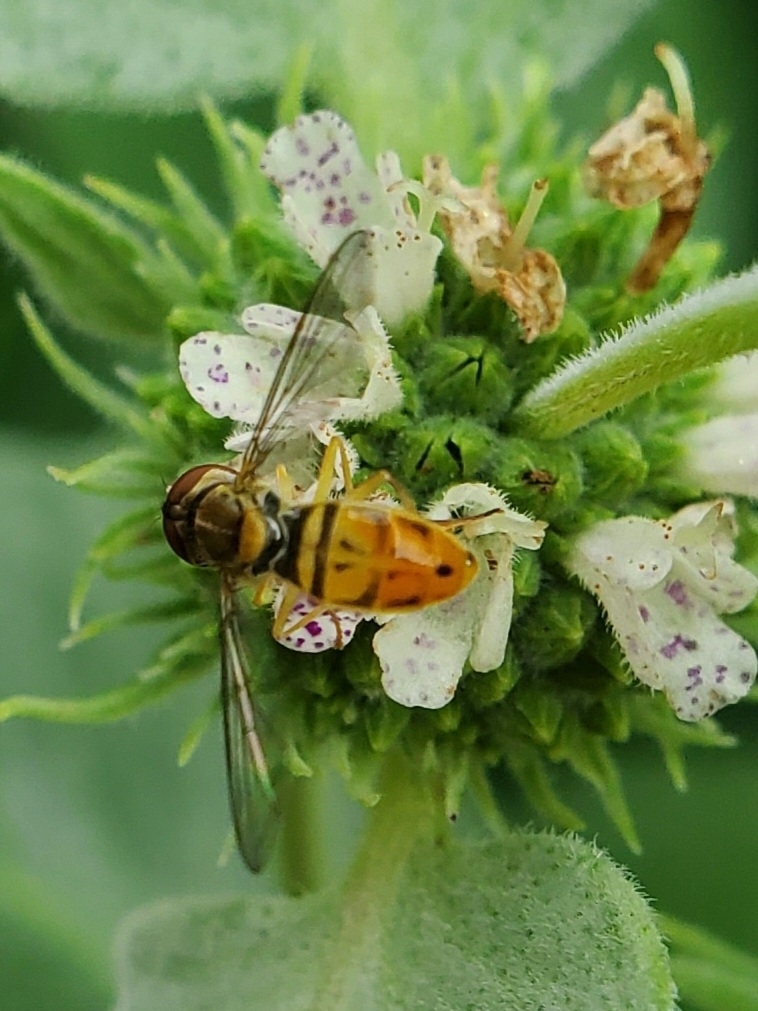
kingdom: Animalia
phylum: Arthropoda
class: Insecta
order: Diptera
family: Syrphidae
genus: Toxomerus
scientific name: Toxomerus marginatus
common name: Syrphid fly
